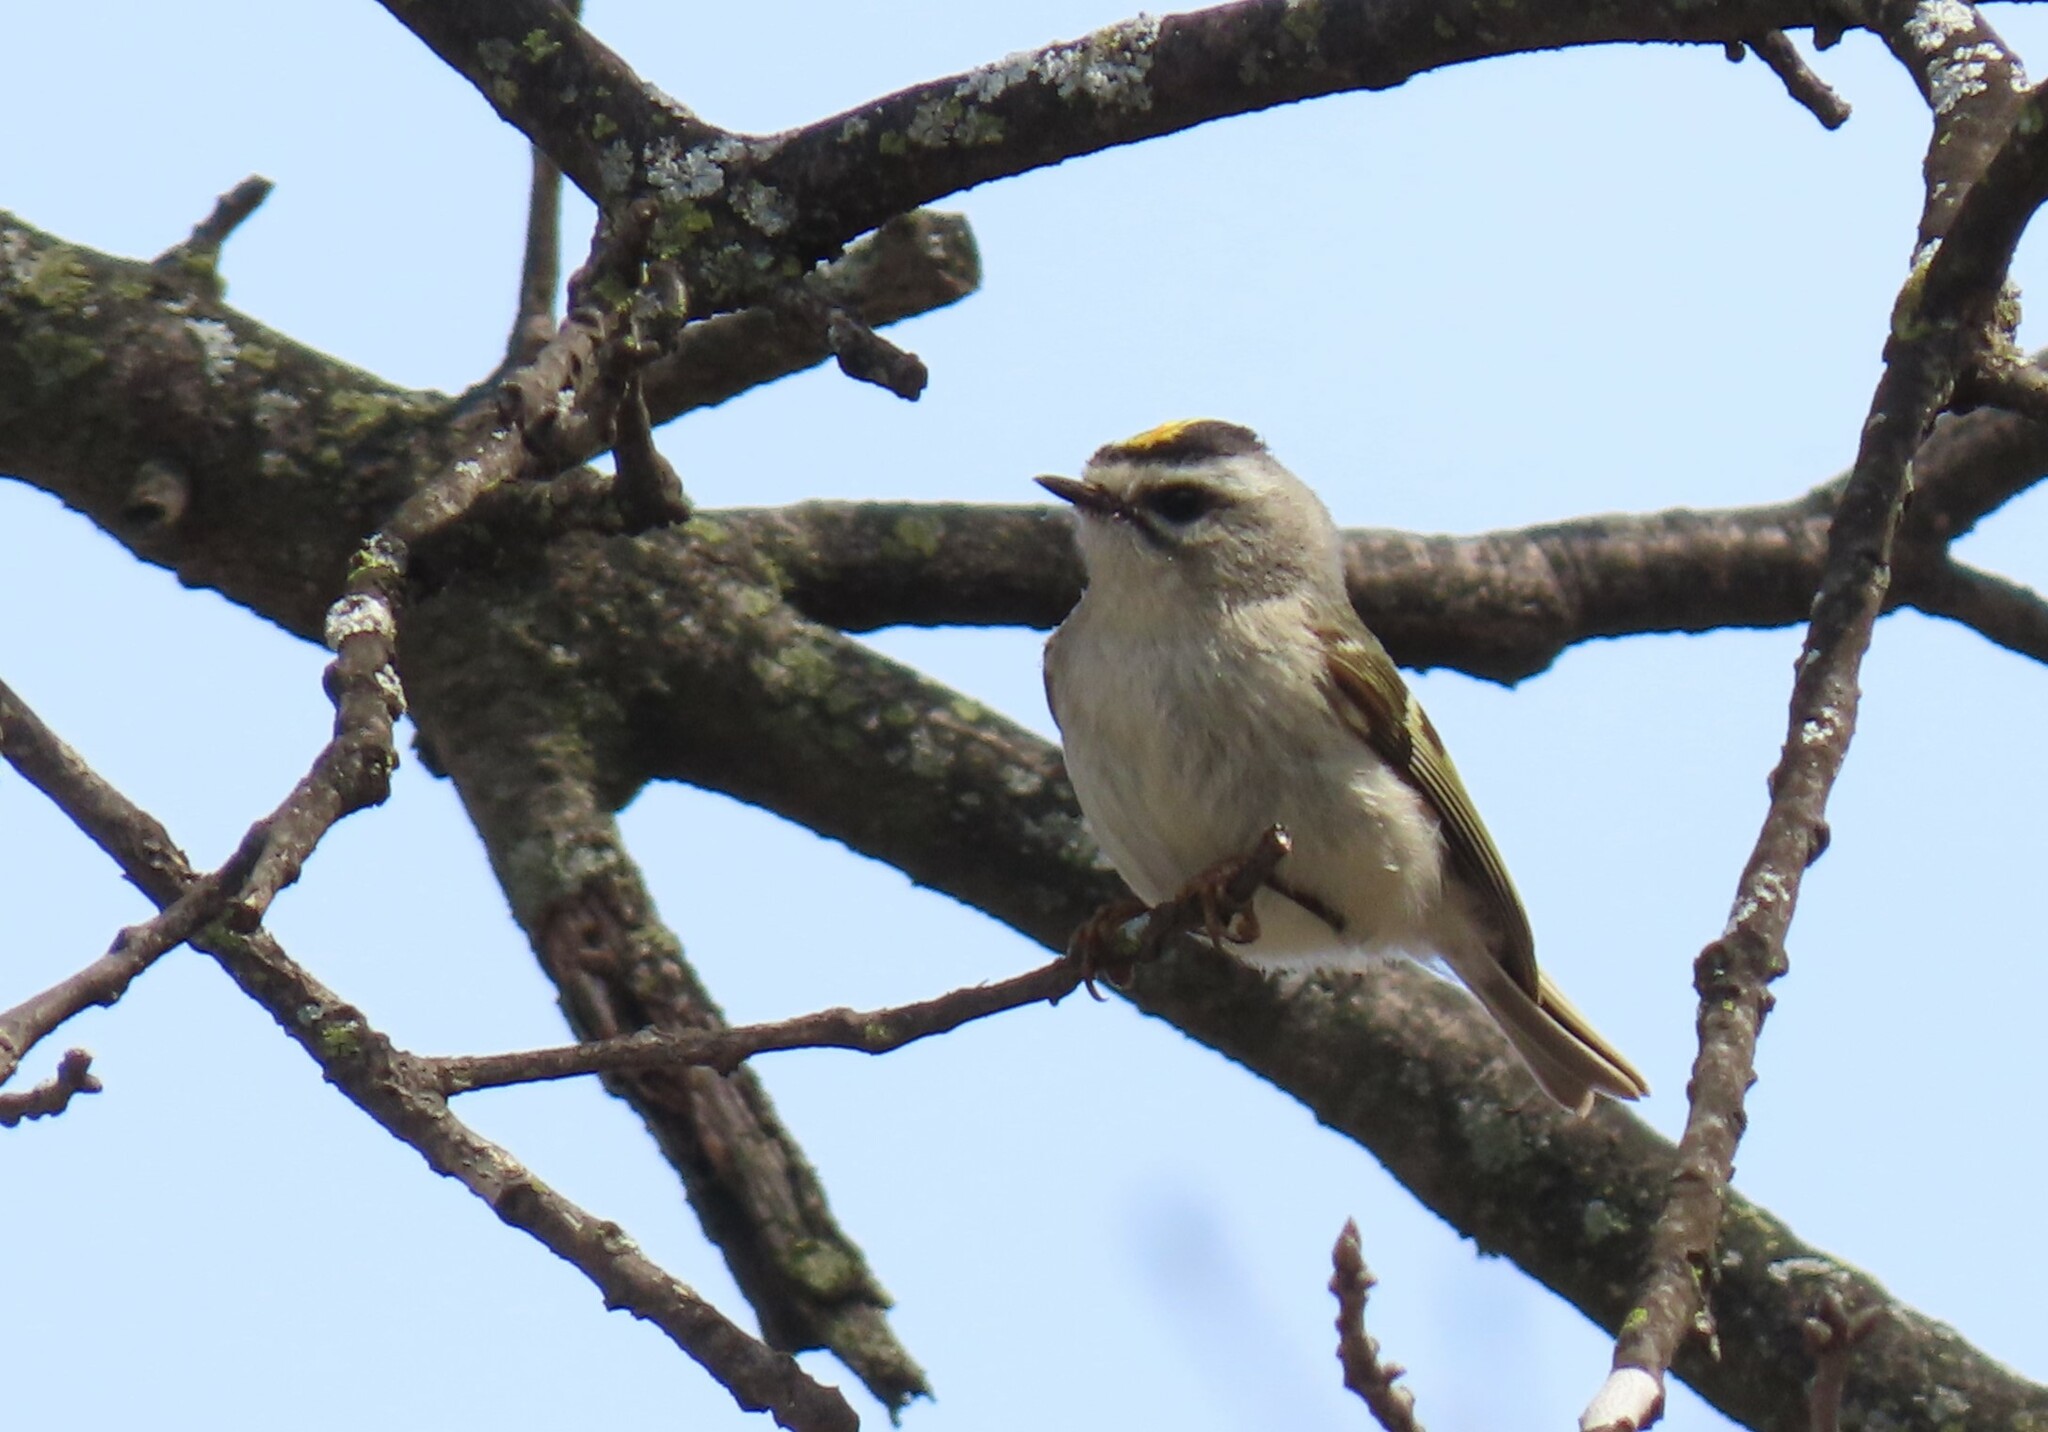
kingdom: Animalia
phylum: Chordata
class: Aves
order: Passeriformes
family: Regulidae
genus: Regulus
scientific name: Regulus satrapa
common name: Golden-crowned kinglet
